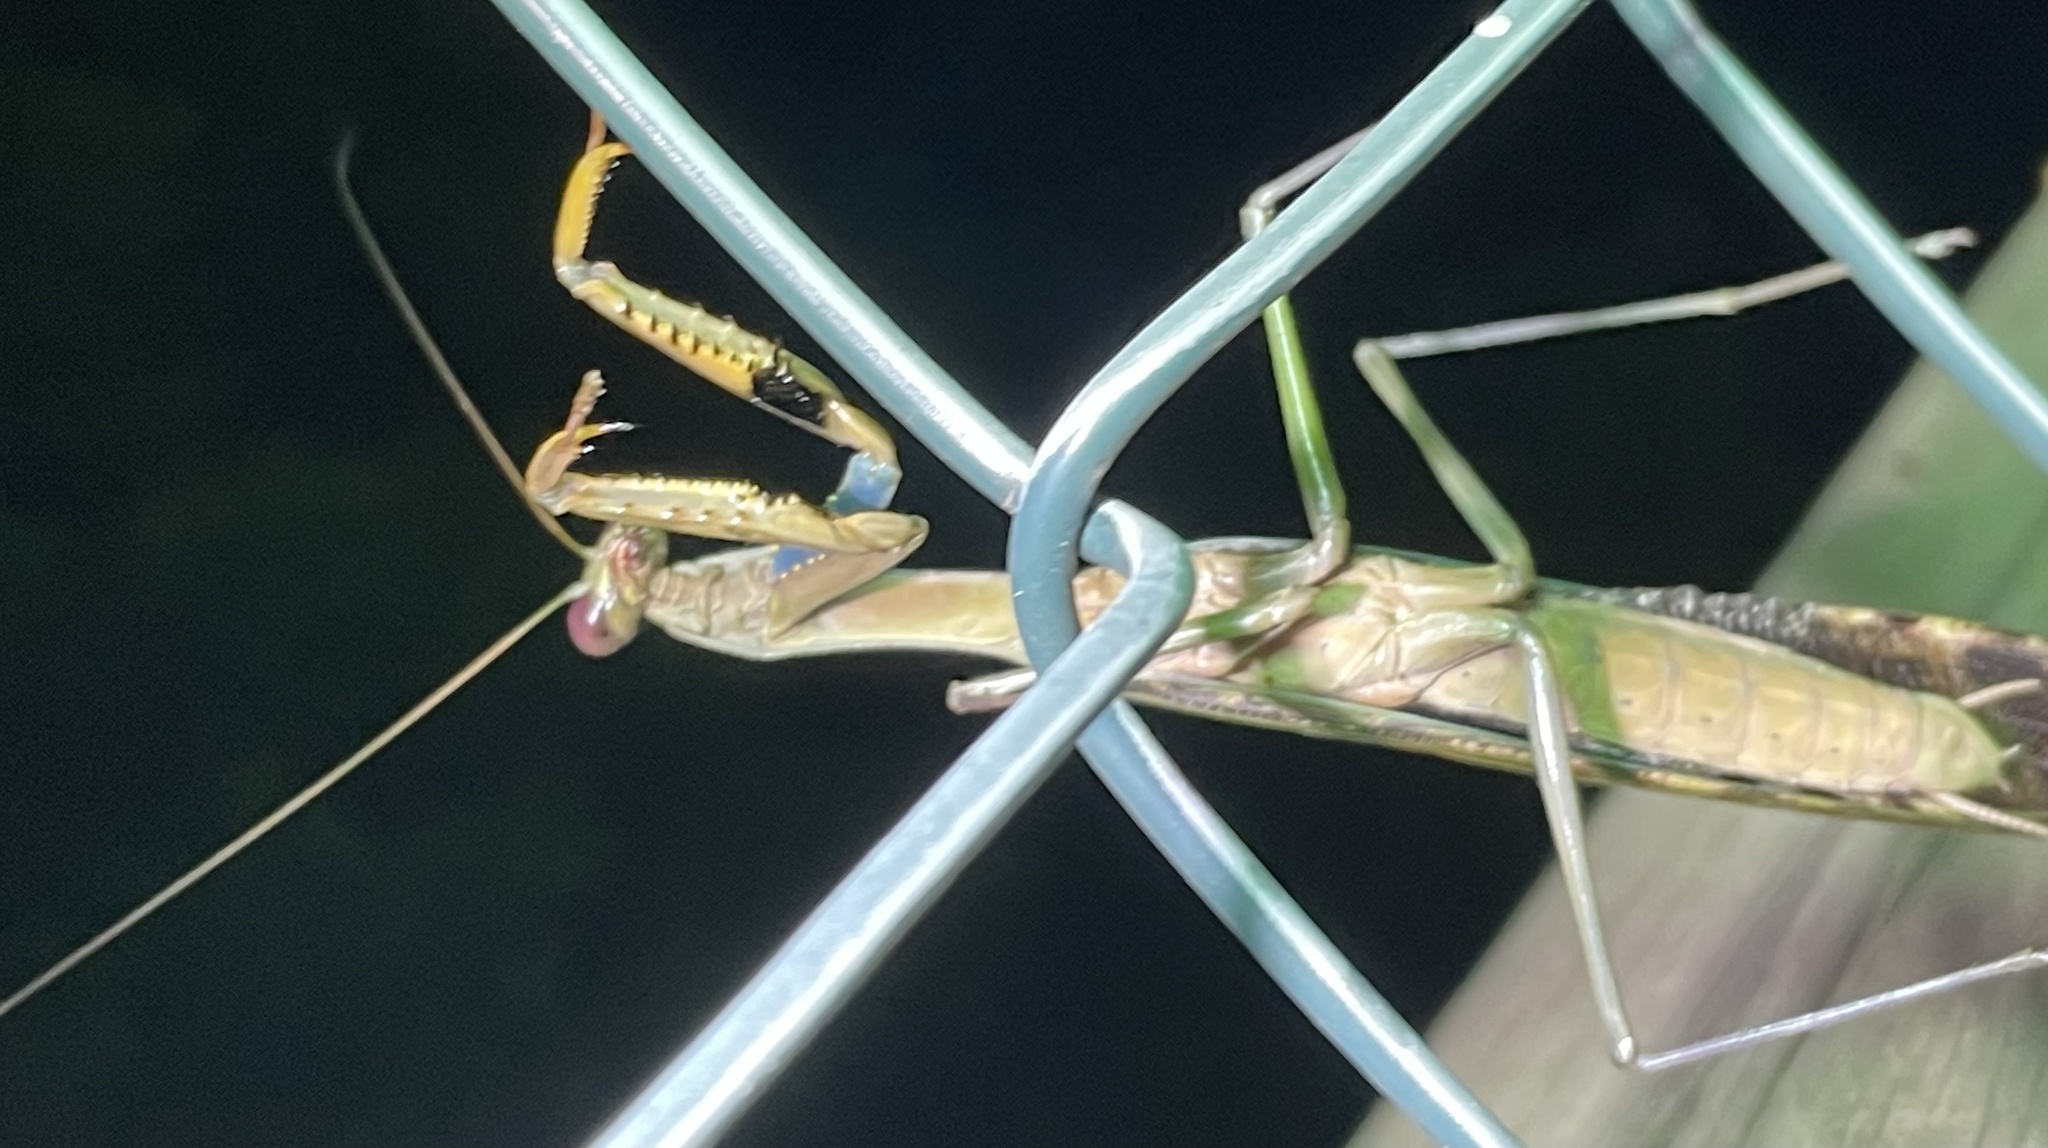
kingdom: Animalia
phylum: Arthropoda
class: Insecta
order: Mantodea
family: Mantidae
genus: Polyspilota
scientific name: Polyspilota aeruginosa
